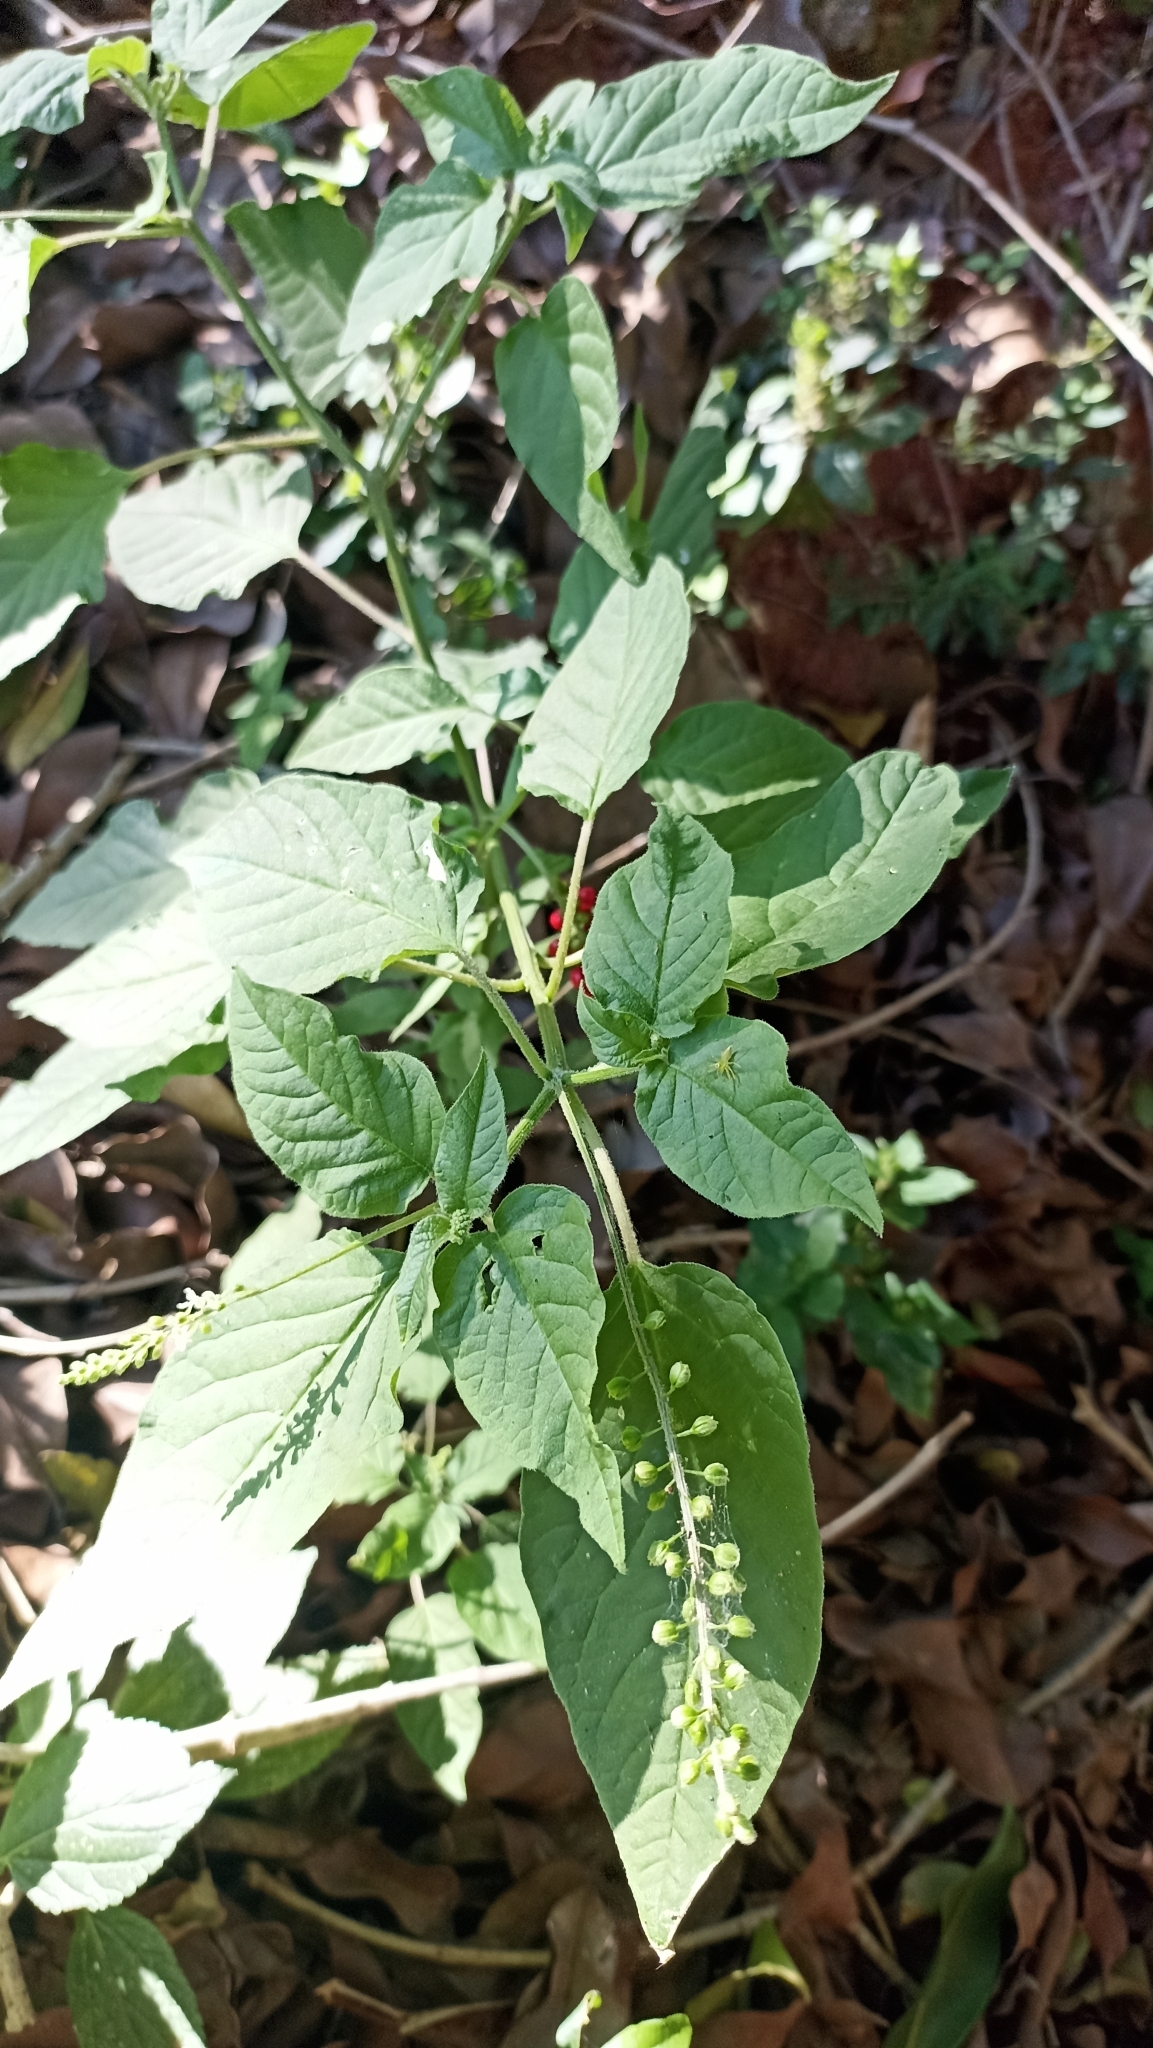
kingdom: Plantae
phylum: Tracheophyta
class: Magnoliopsida
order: Caryophyllales
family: Phytolaccaceae
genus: Rivina
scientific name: Rivina humilis
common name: Rougeplant
